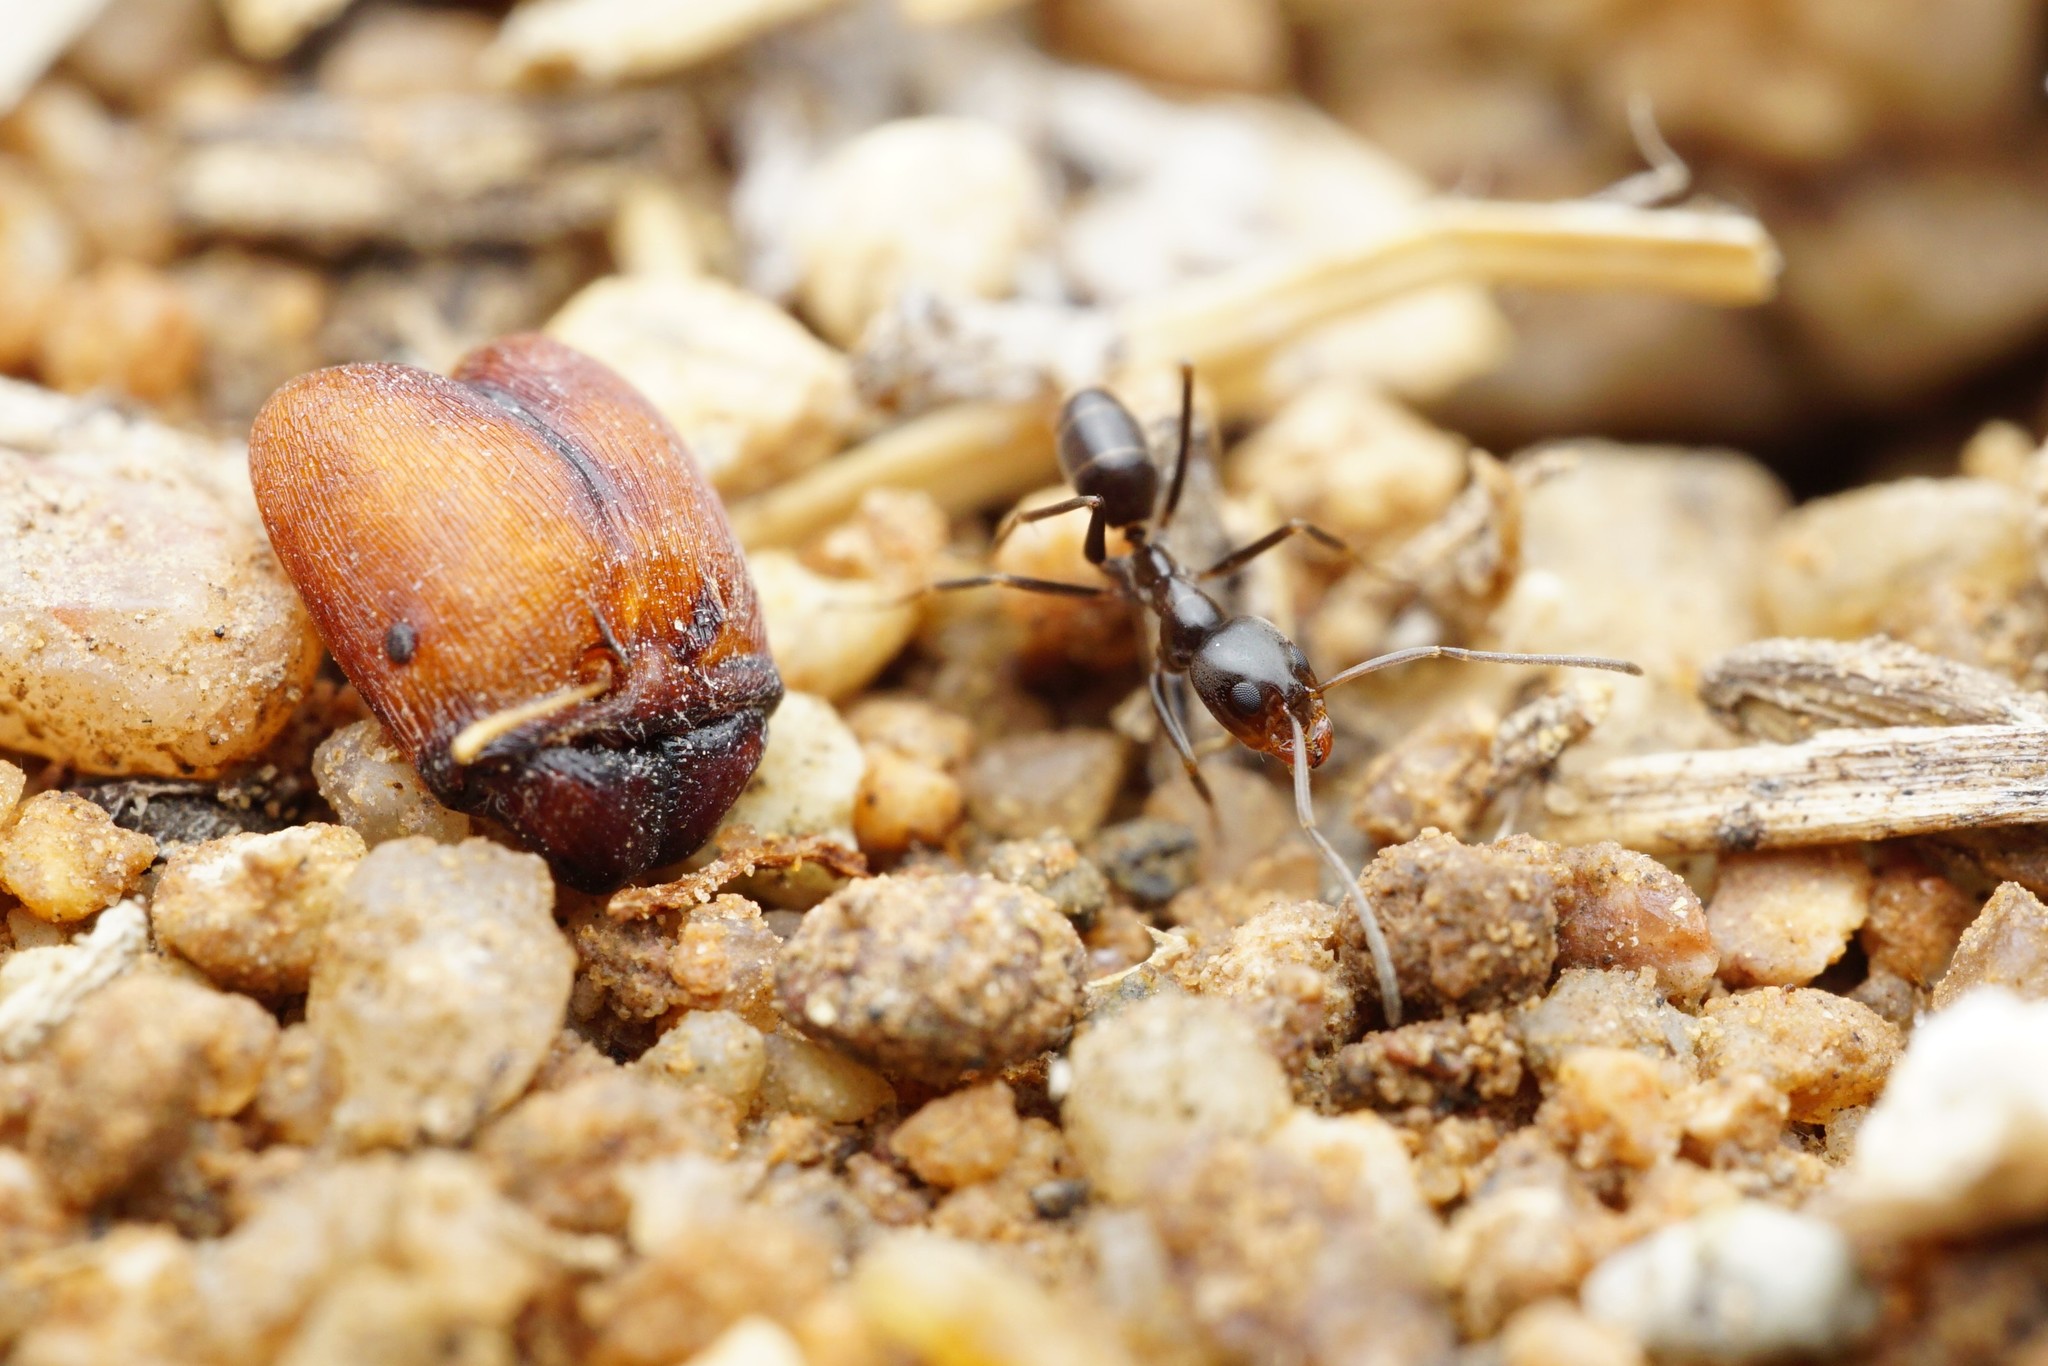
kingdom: Animalia
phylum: Arthropoda
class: Insecta
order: Hymenoptera
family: Formicidae
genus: Dorymyrmex
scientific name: Dorymyrmex insanus
